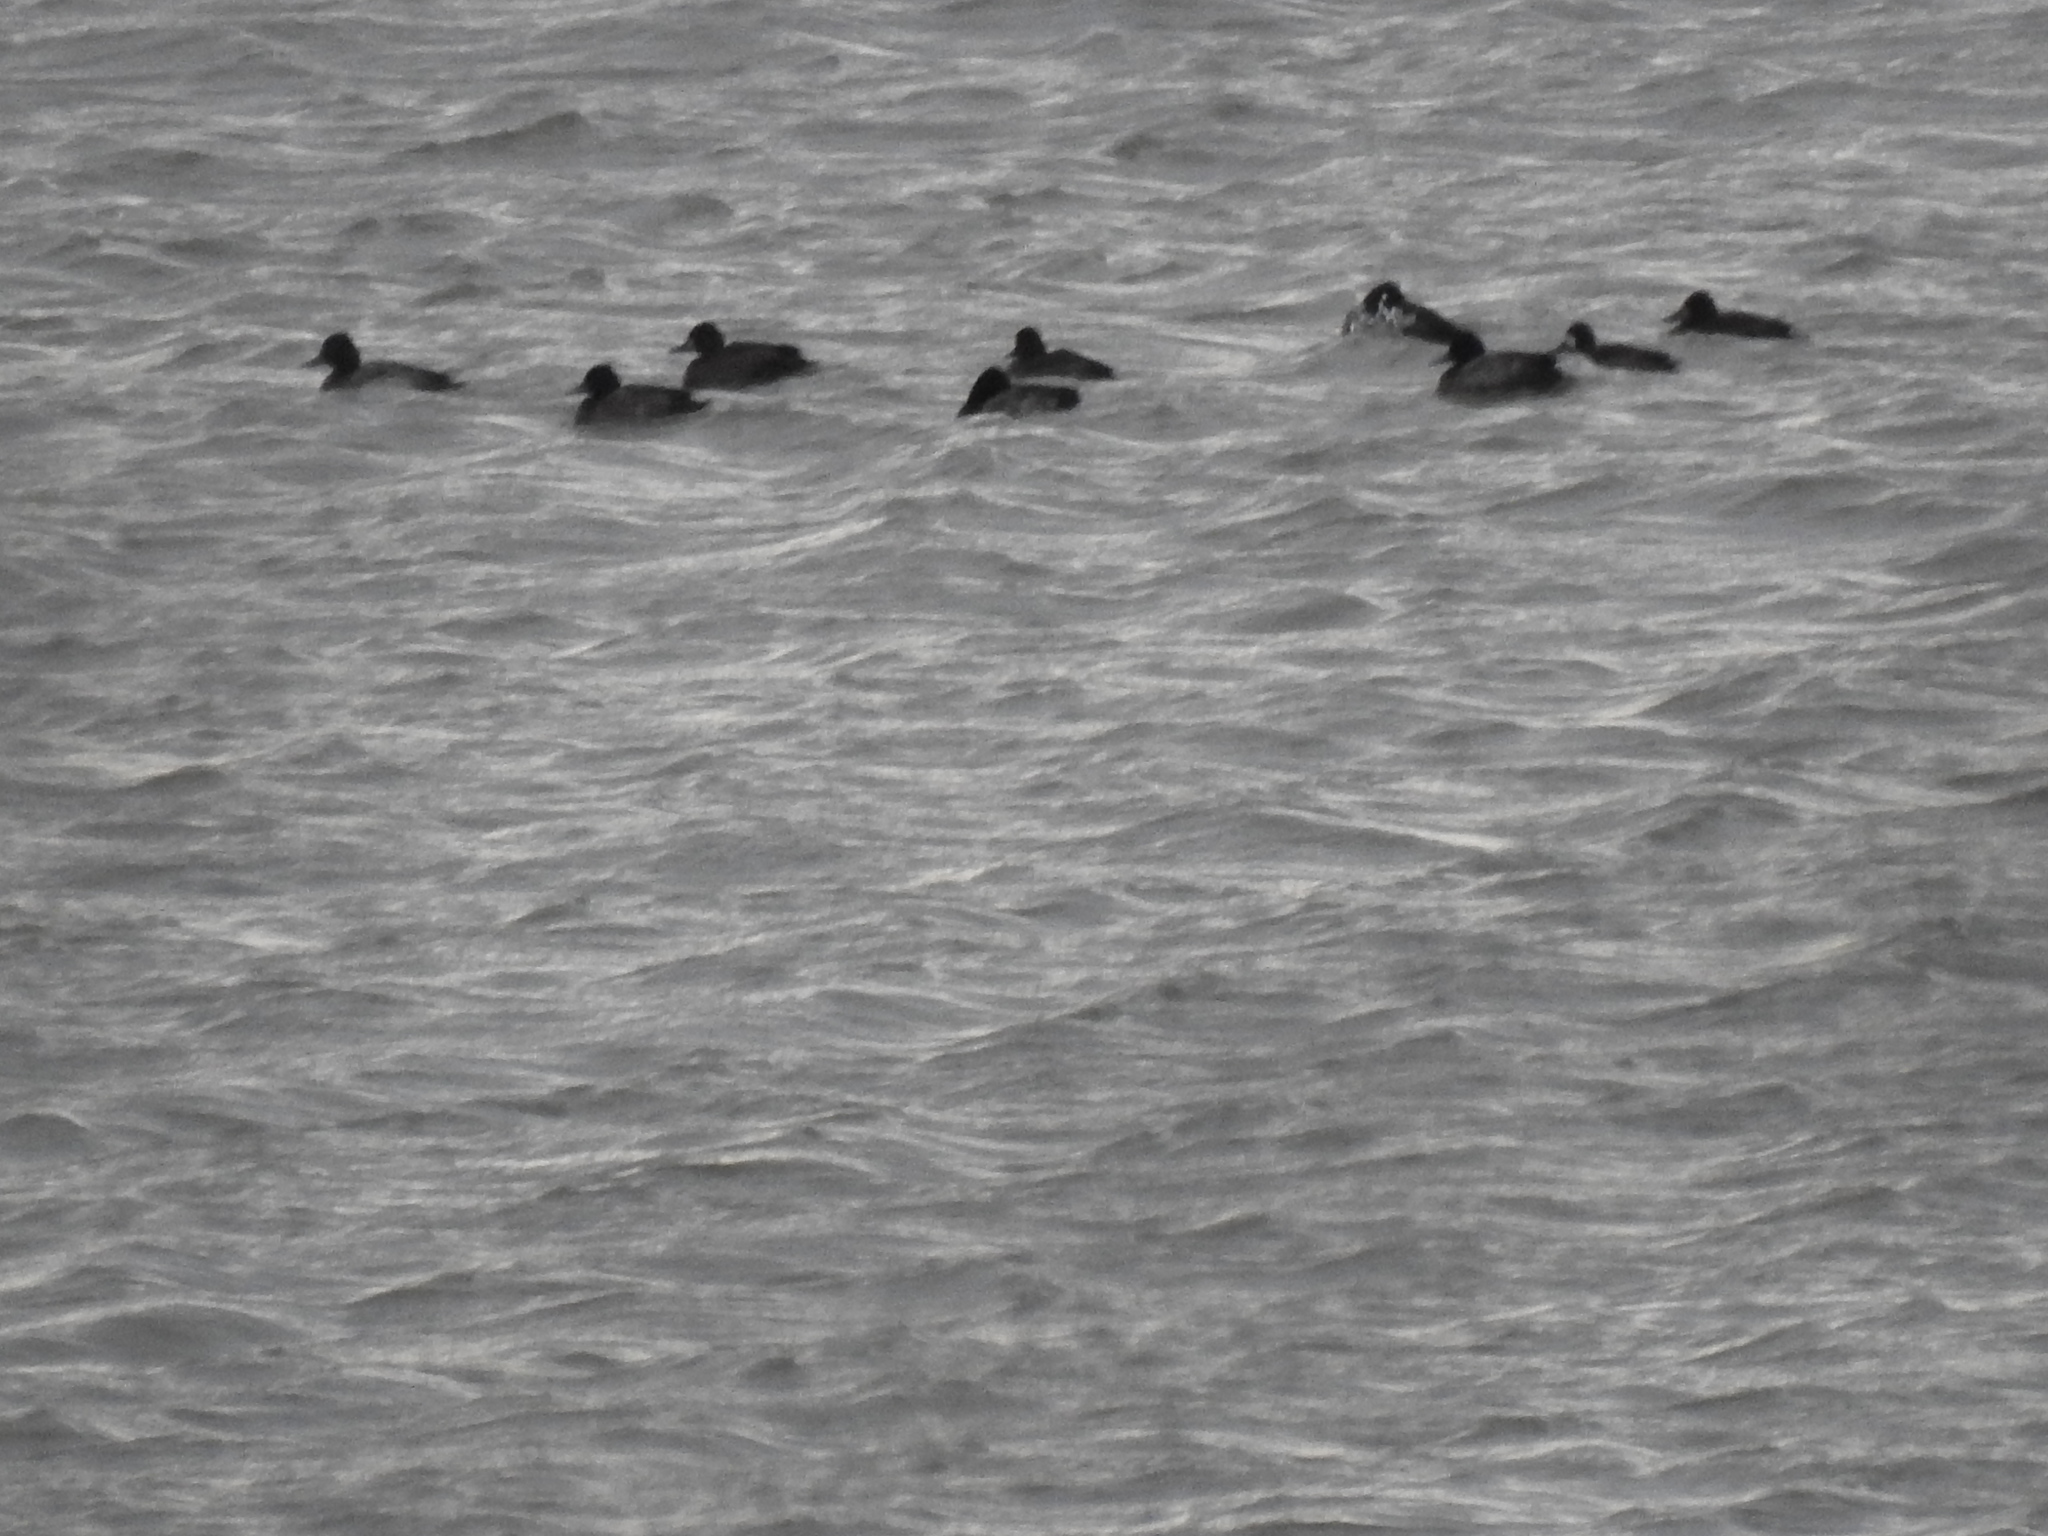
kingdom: Animalia
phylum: Chordata
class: Aves
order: Anseriformes
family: Anatidae
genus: Aythya
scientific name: Aythya affinis
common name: Lesser scaup
